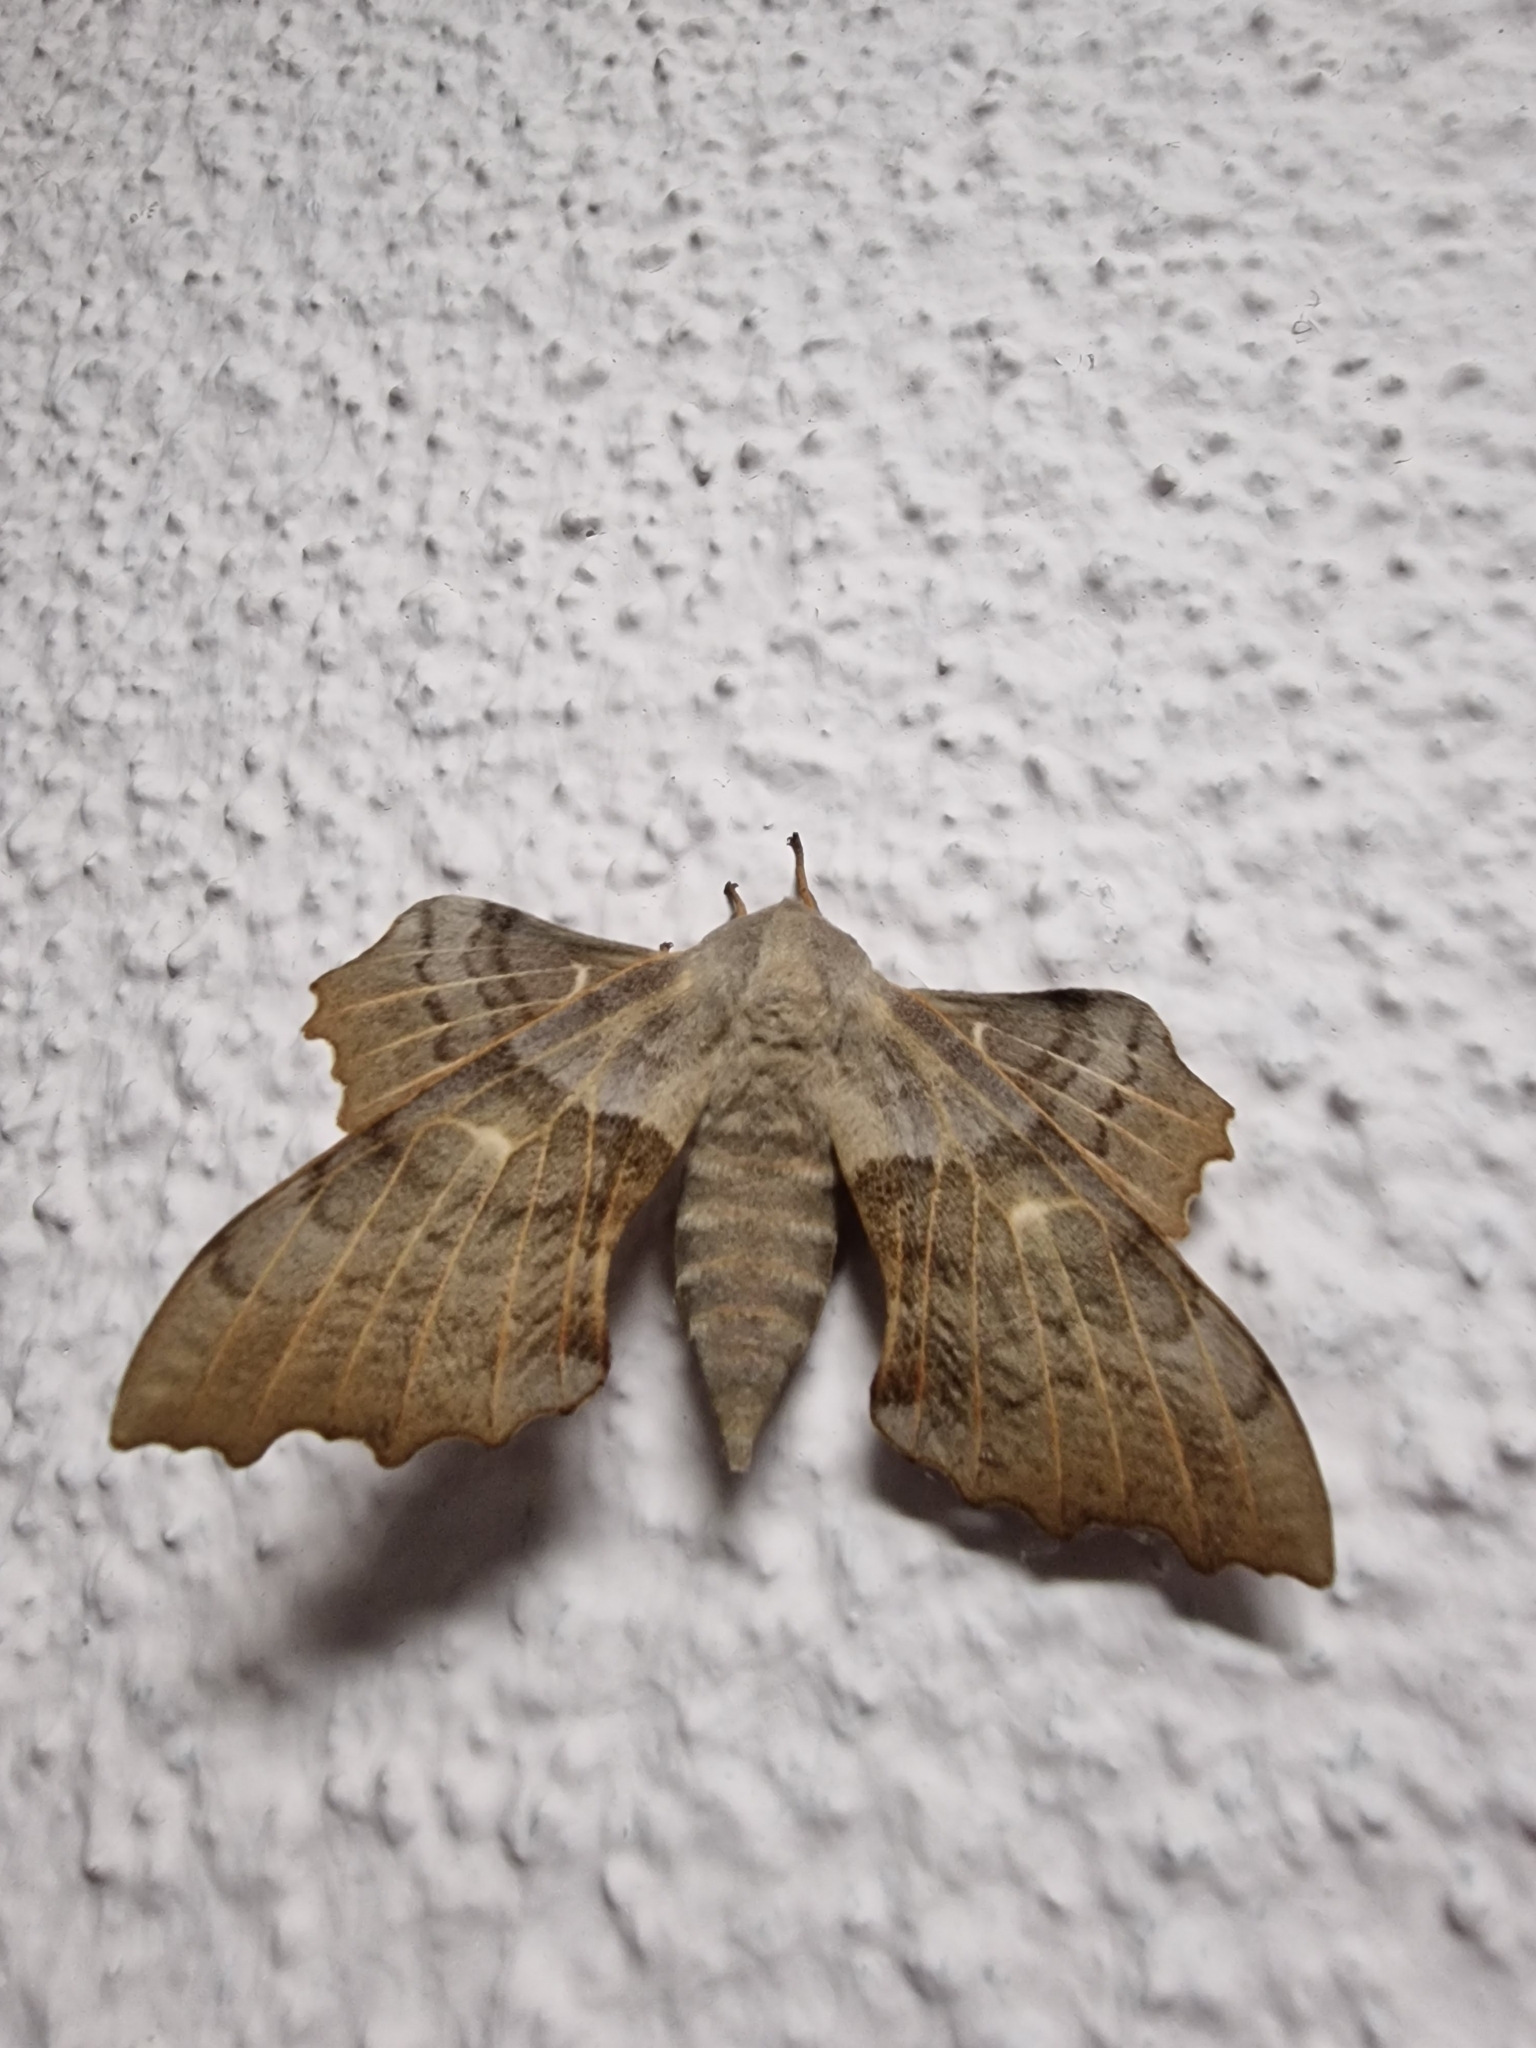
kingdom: Animalia
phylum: Arthropoda
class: Insecta
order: Lepidoptera
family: Sphingidae
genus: Laothoe
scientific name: Laothoe populi
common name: Poplar hawk-moth
